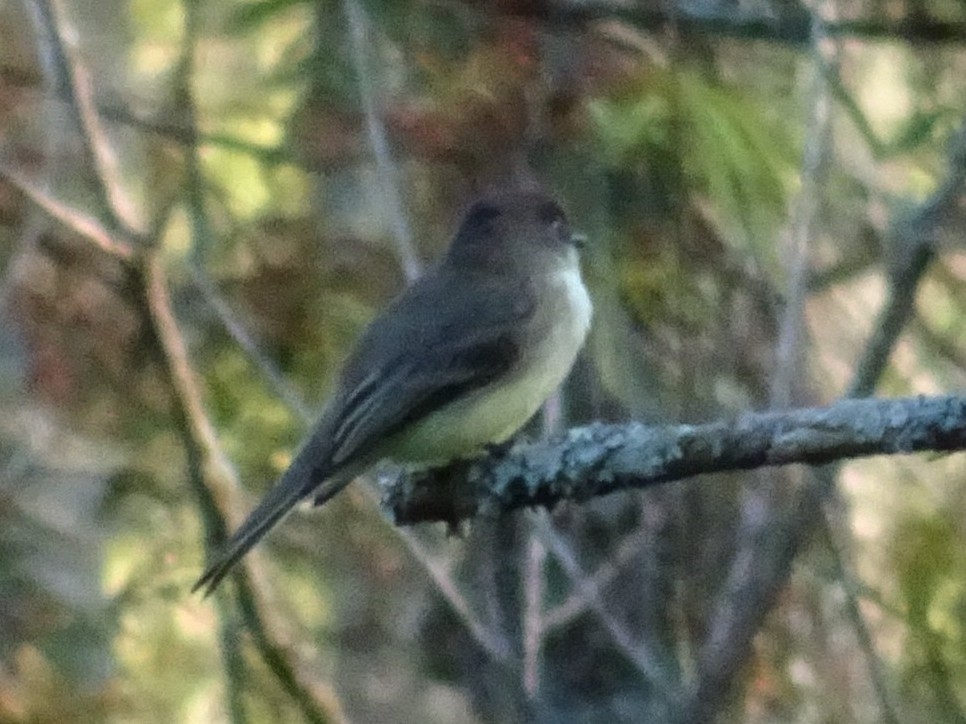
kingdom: Animalia
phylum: Chordata
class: Aves
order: Passeriformes
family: Tyrannidae
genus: Sayornis
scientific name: Sayornis phoebe
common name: Eastern phoebe
